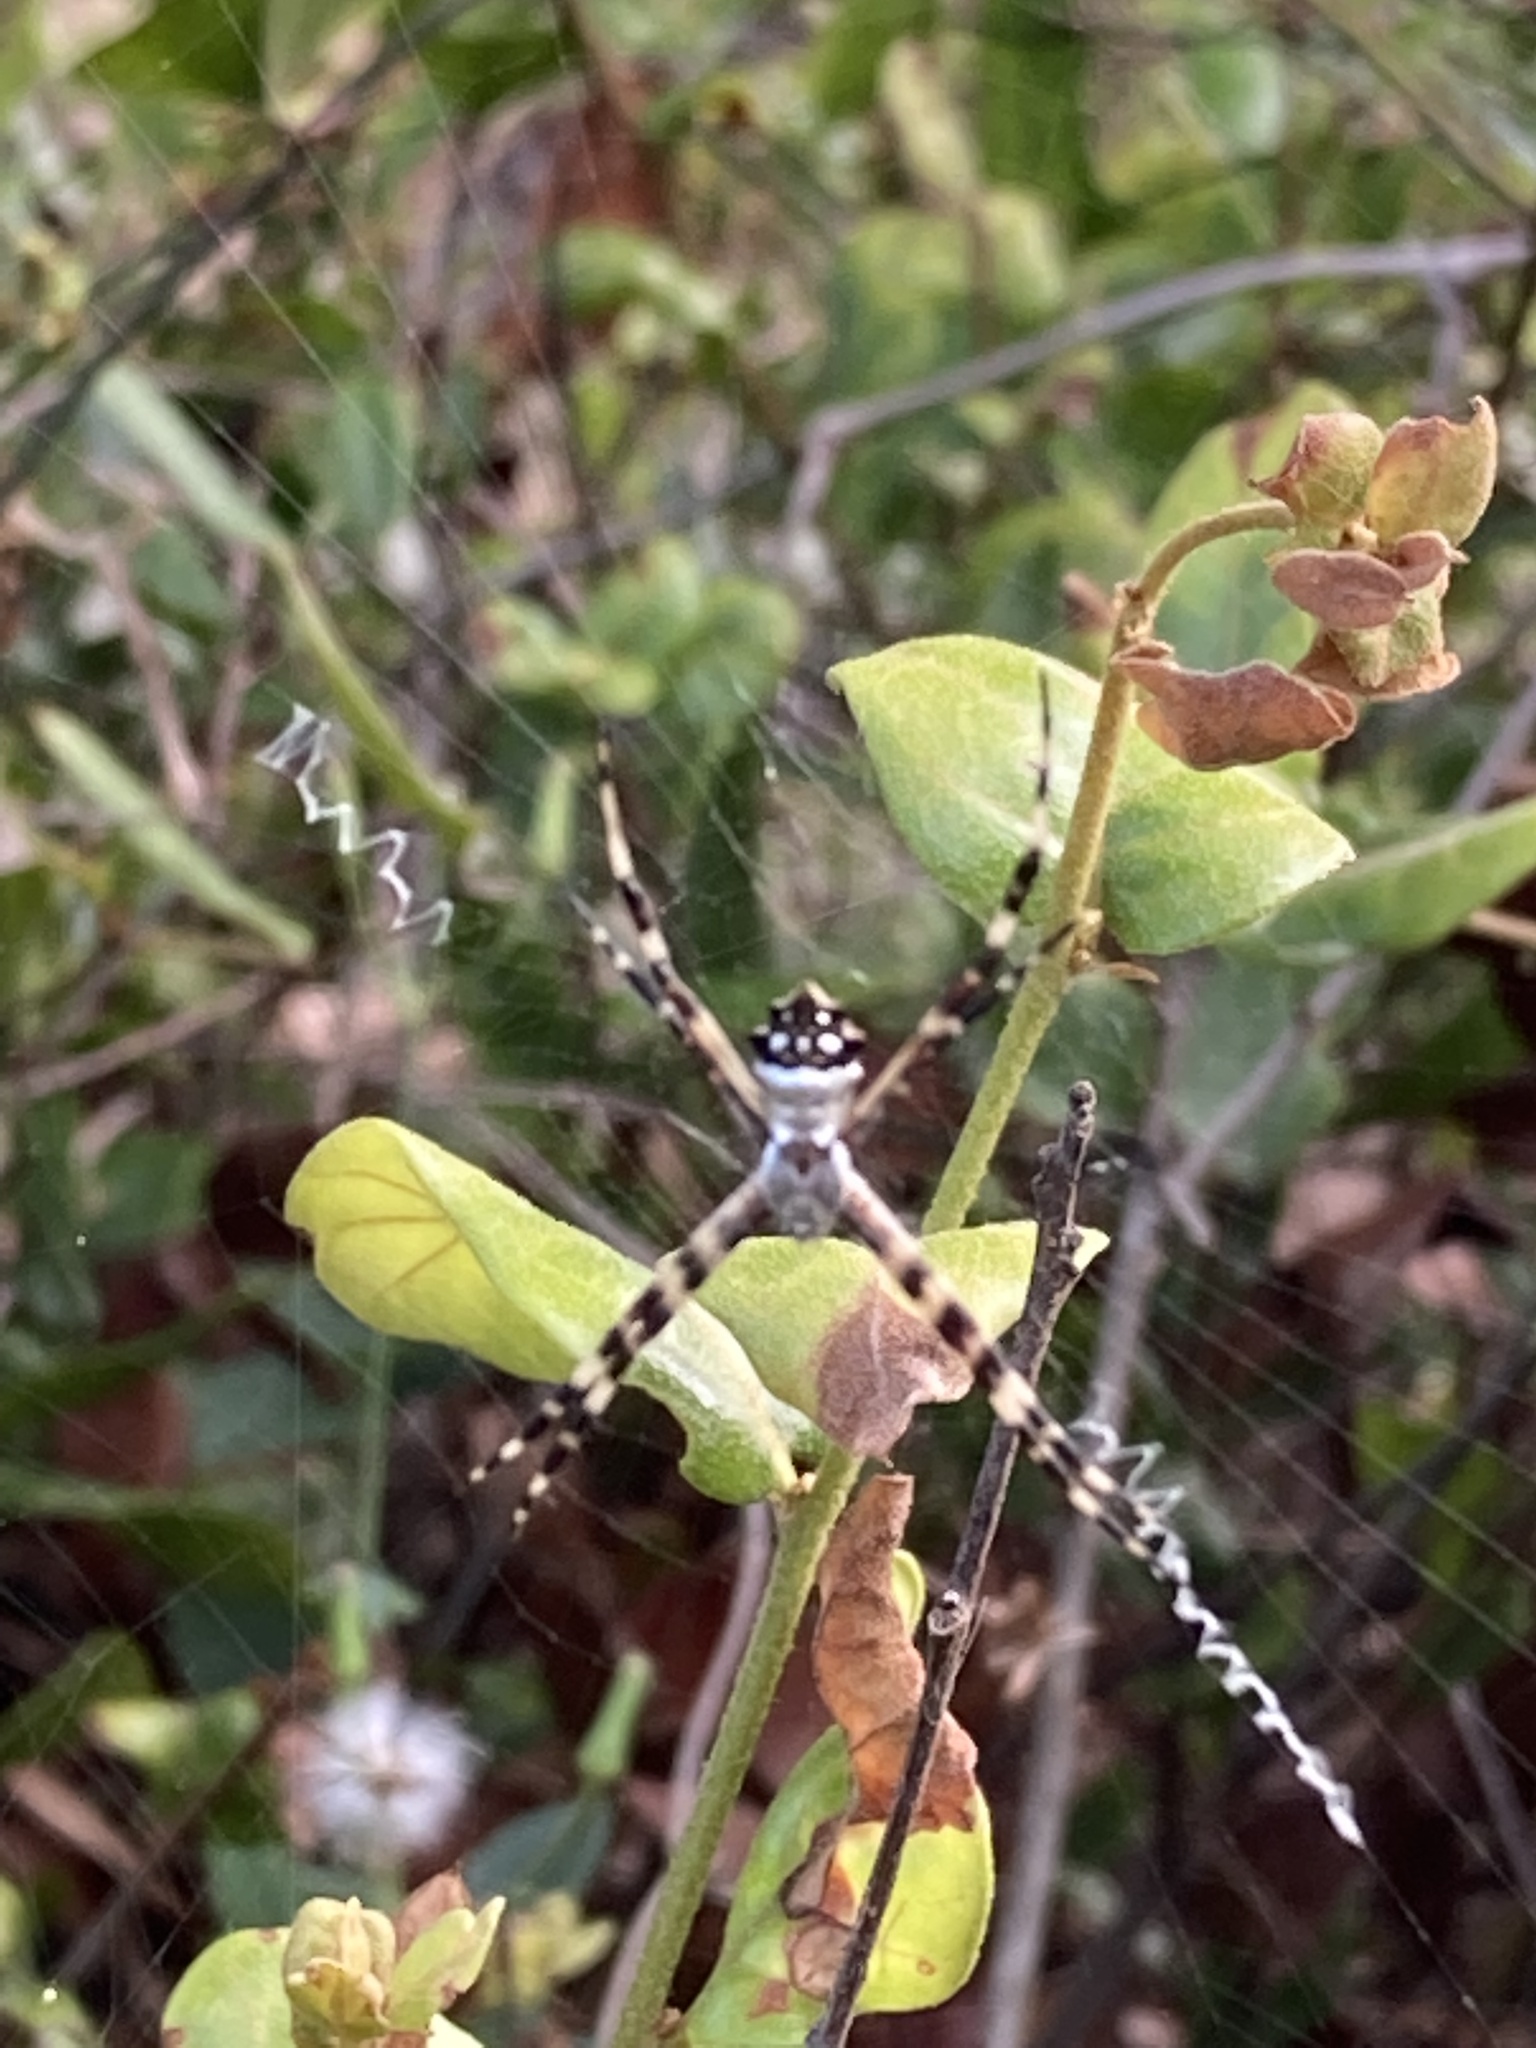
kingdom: Animalia
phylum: Arthropoda
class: Arachnida
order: Araneae
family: Araneidae
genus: Argiope
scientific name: Argiope argentata
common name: Orb weavers
